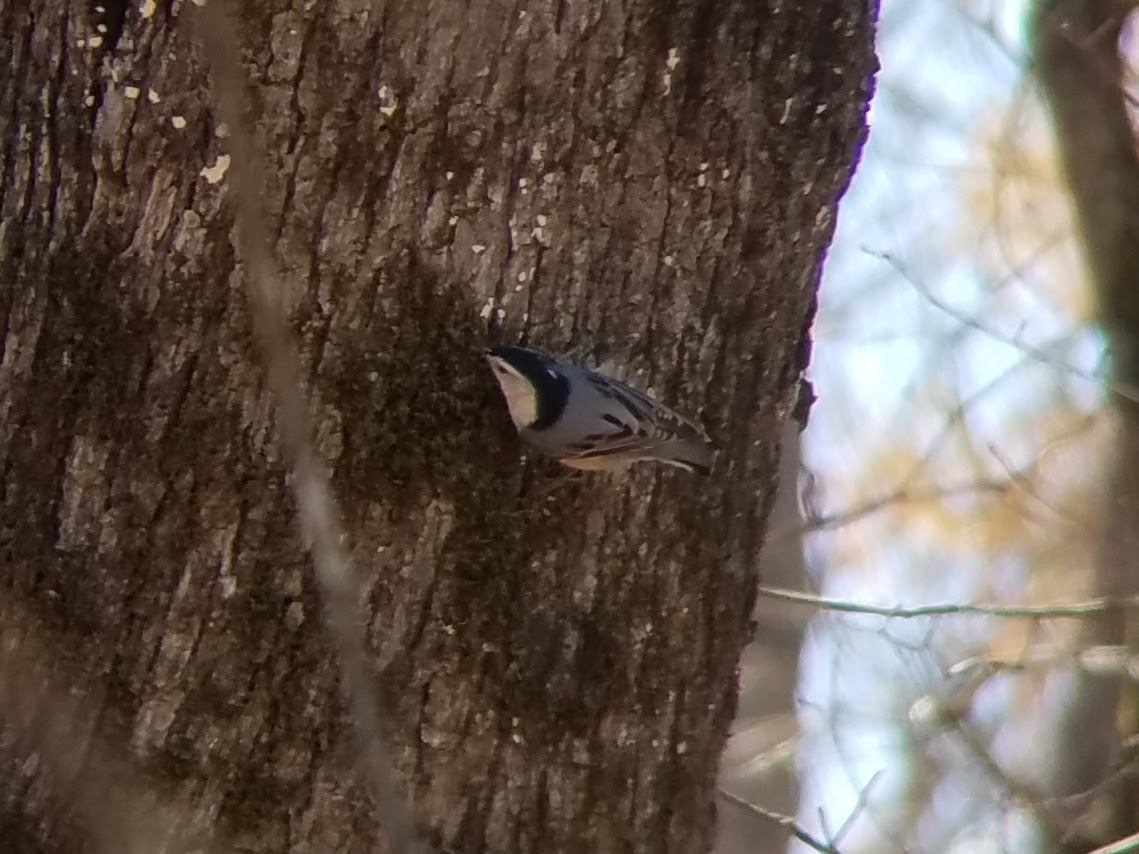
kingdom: Animalia
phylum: Chordata
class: Aves
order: Passeriformes
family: Sittidae
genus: Sitta
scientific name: Sitta carolinensis
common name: White-breasted nuthatch
